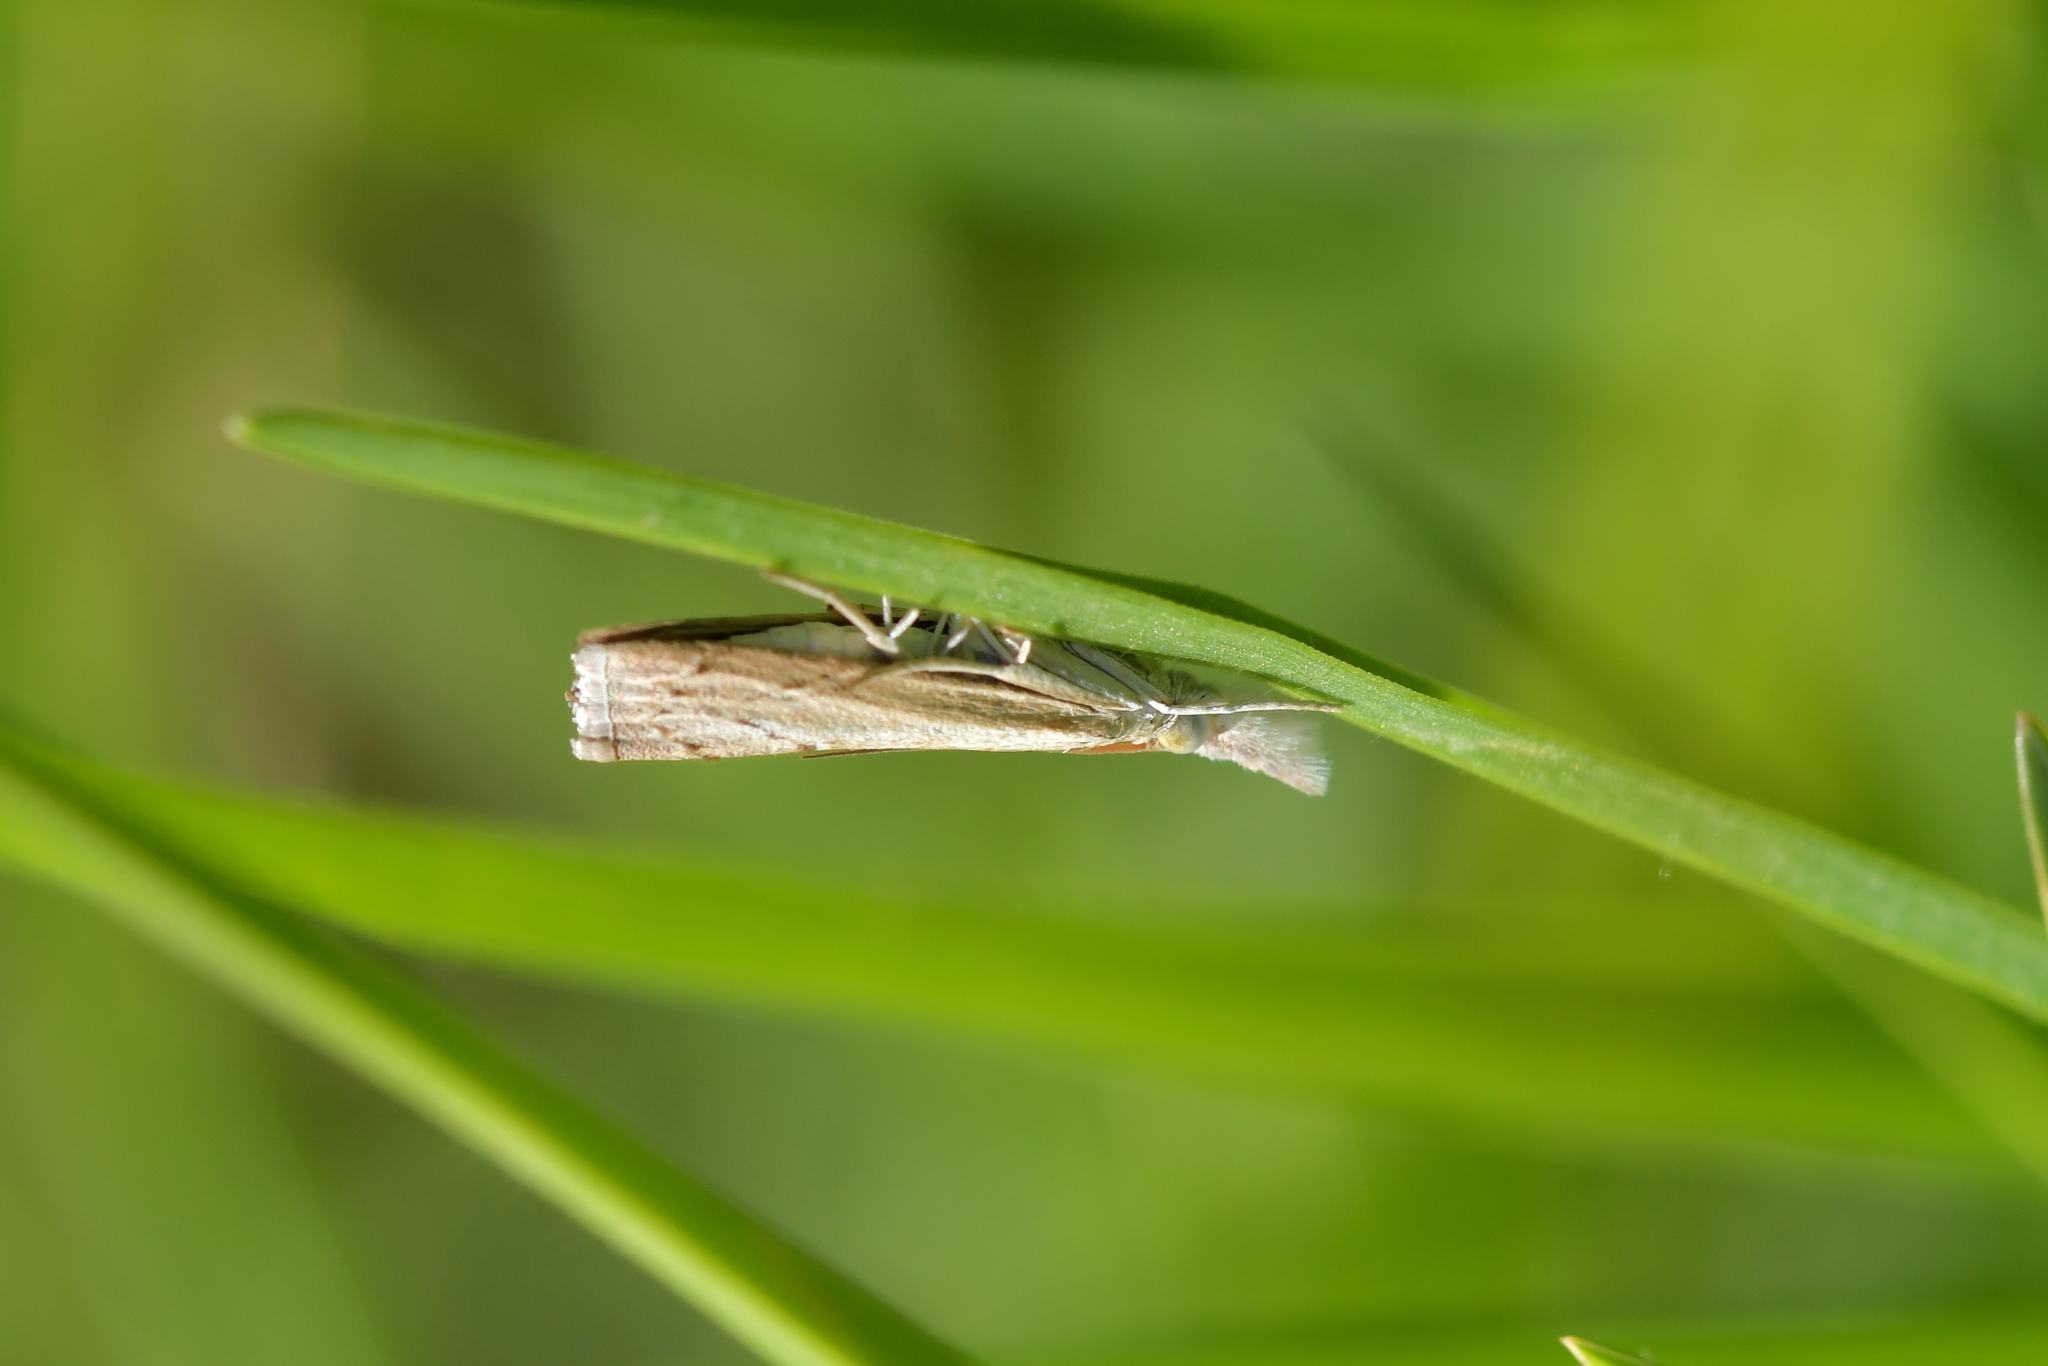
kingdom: Animalia
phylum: Arthropoda
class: Insecta
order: Lepidoptera
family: Crambidae
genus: Culladia
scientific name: Culladia cuneiferellus
